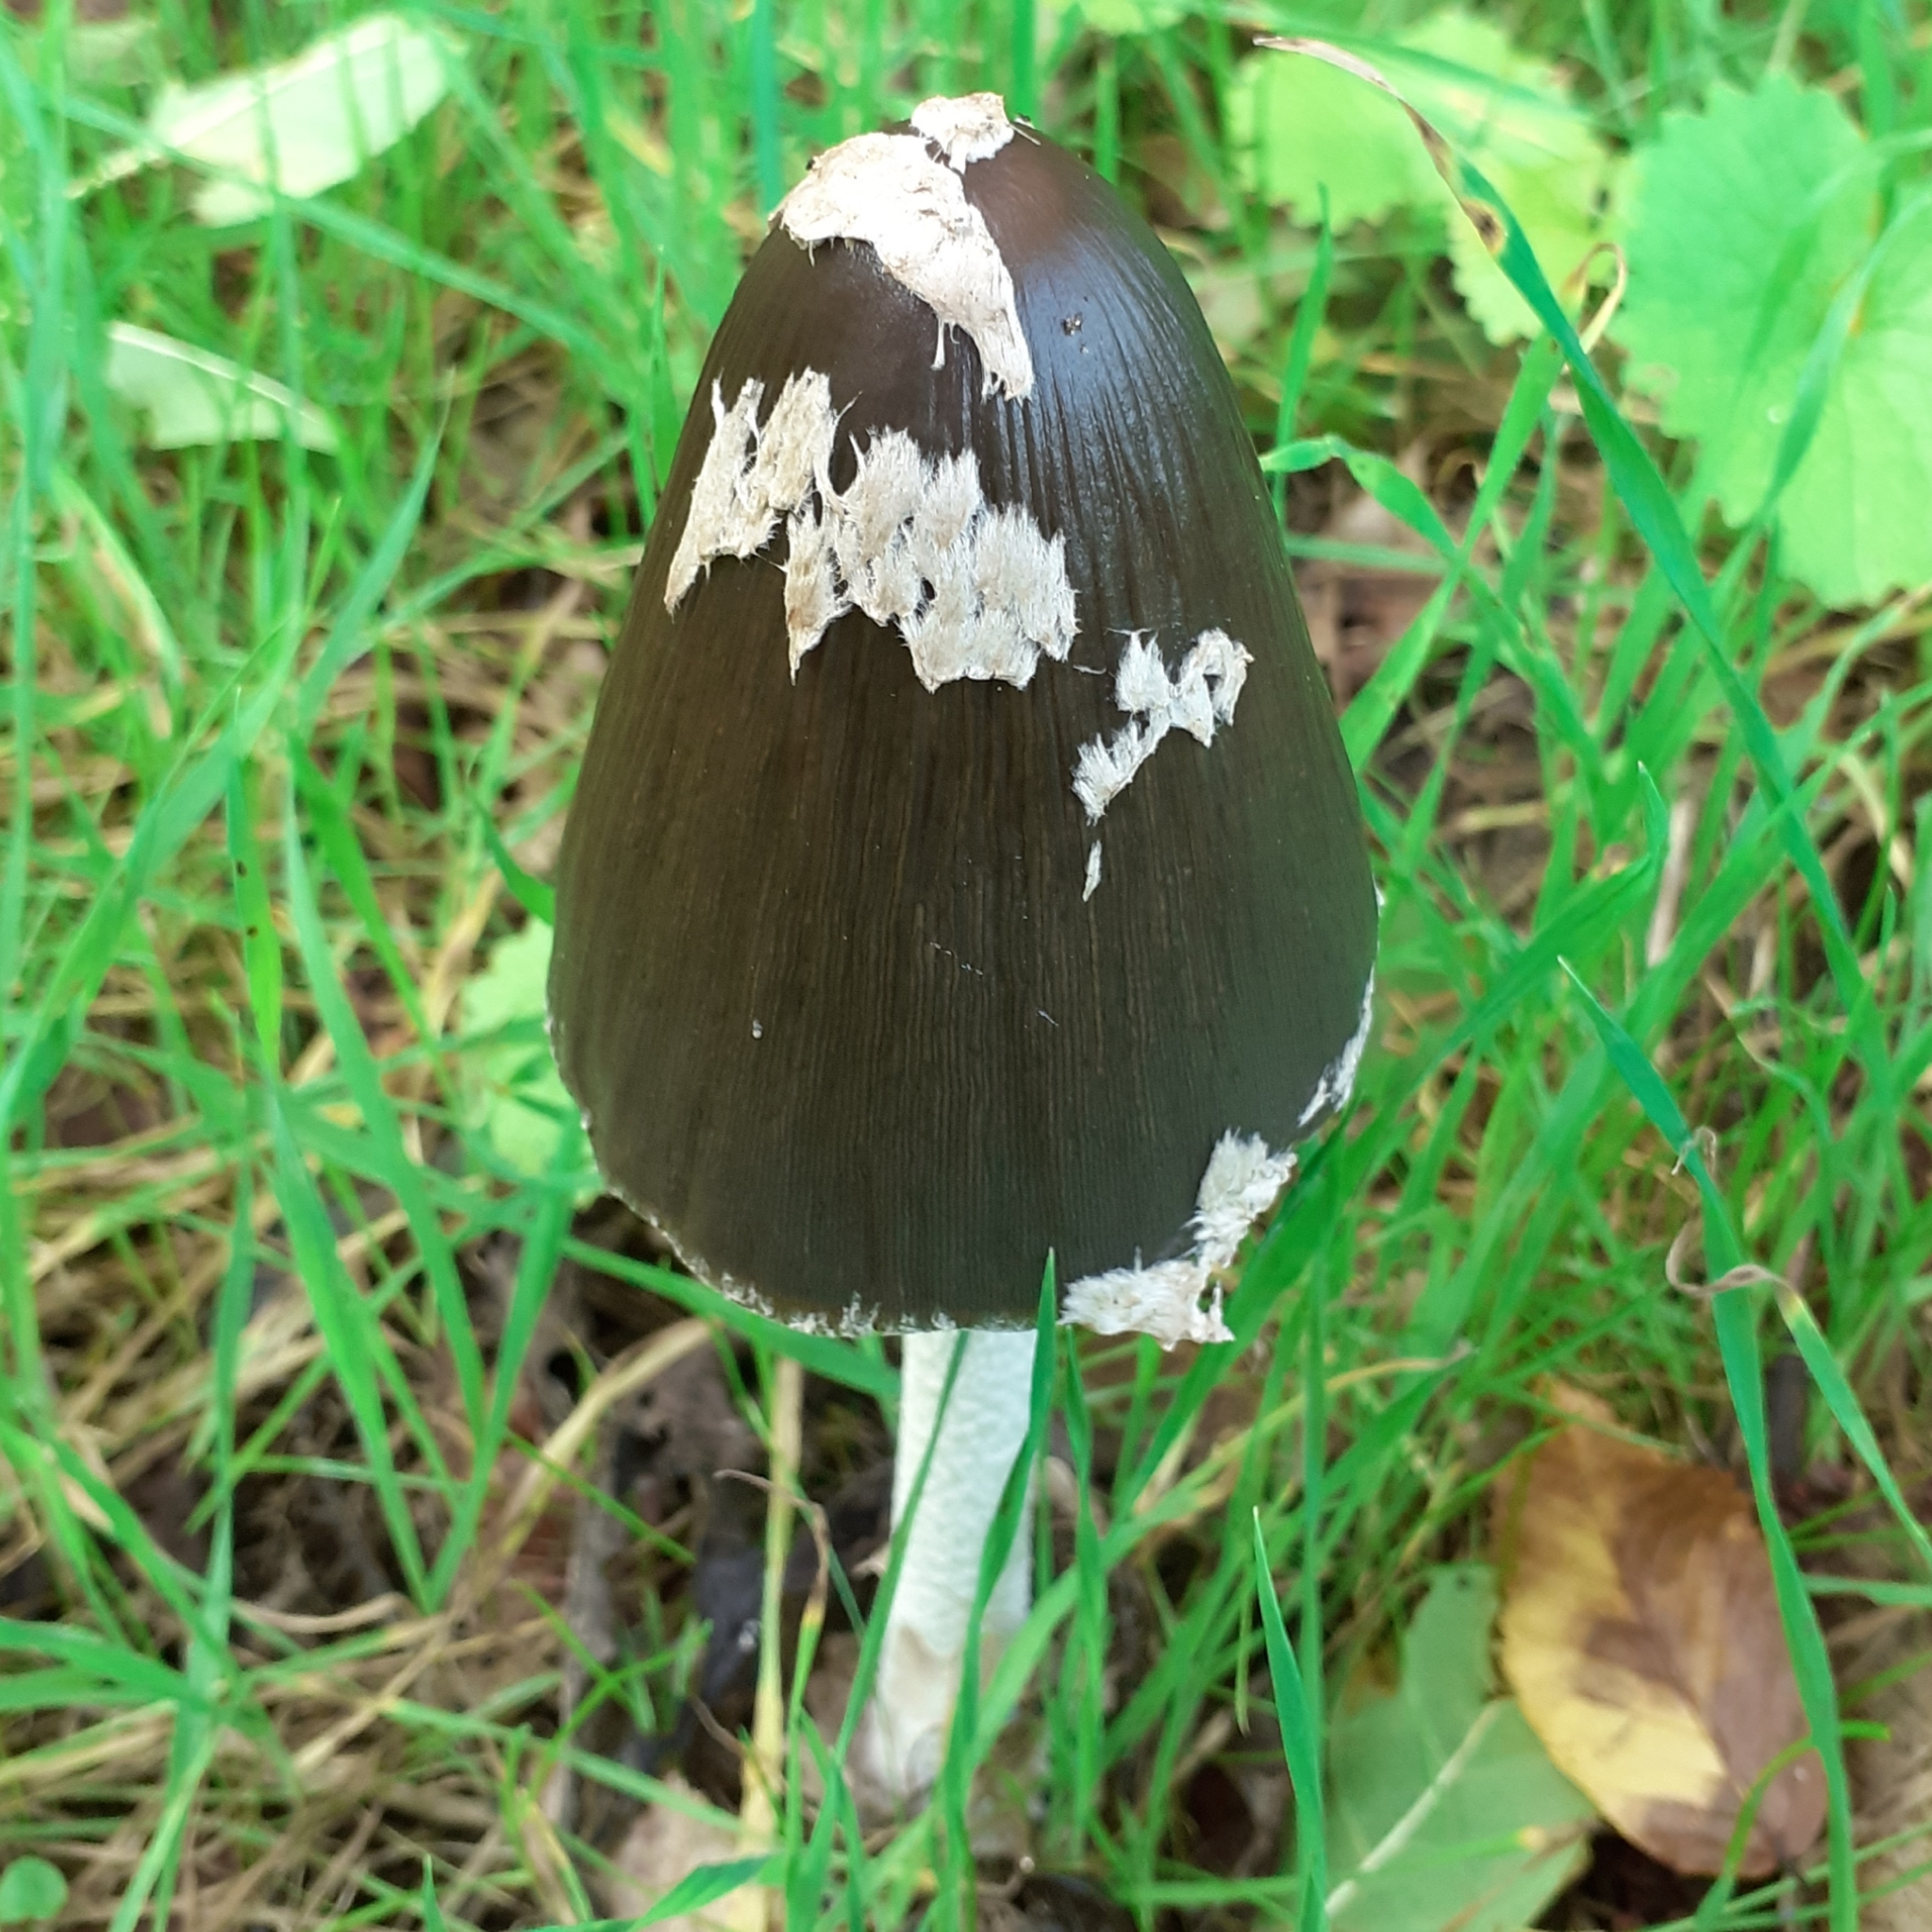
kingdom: Fungi
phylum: Basidiomycota
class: Agaricomycetes
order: Agaricales
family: Psathyrellaceae
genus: Coprinopsis
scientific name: Coprinopsis picacea
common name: Magpie inkcap
